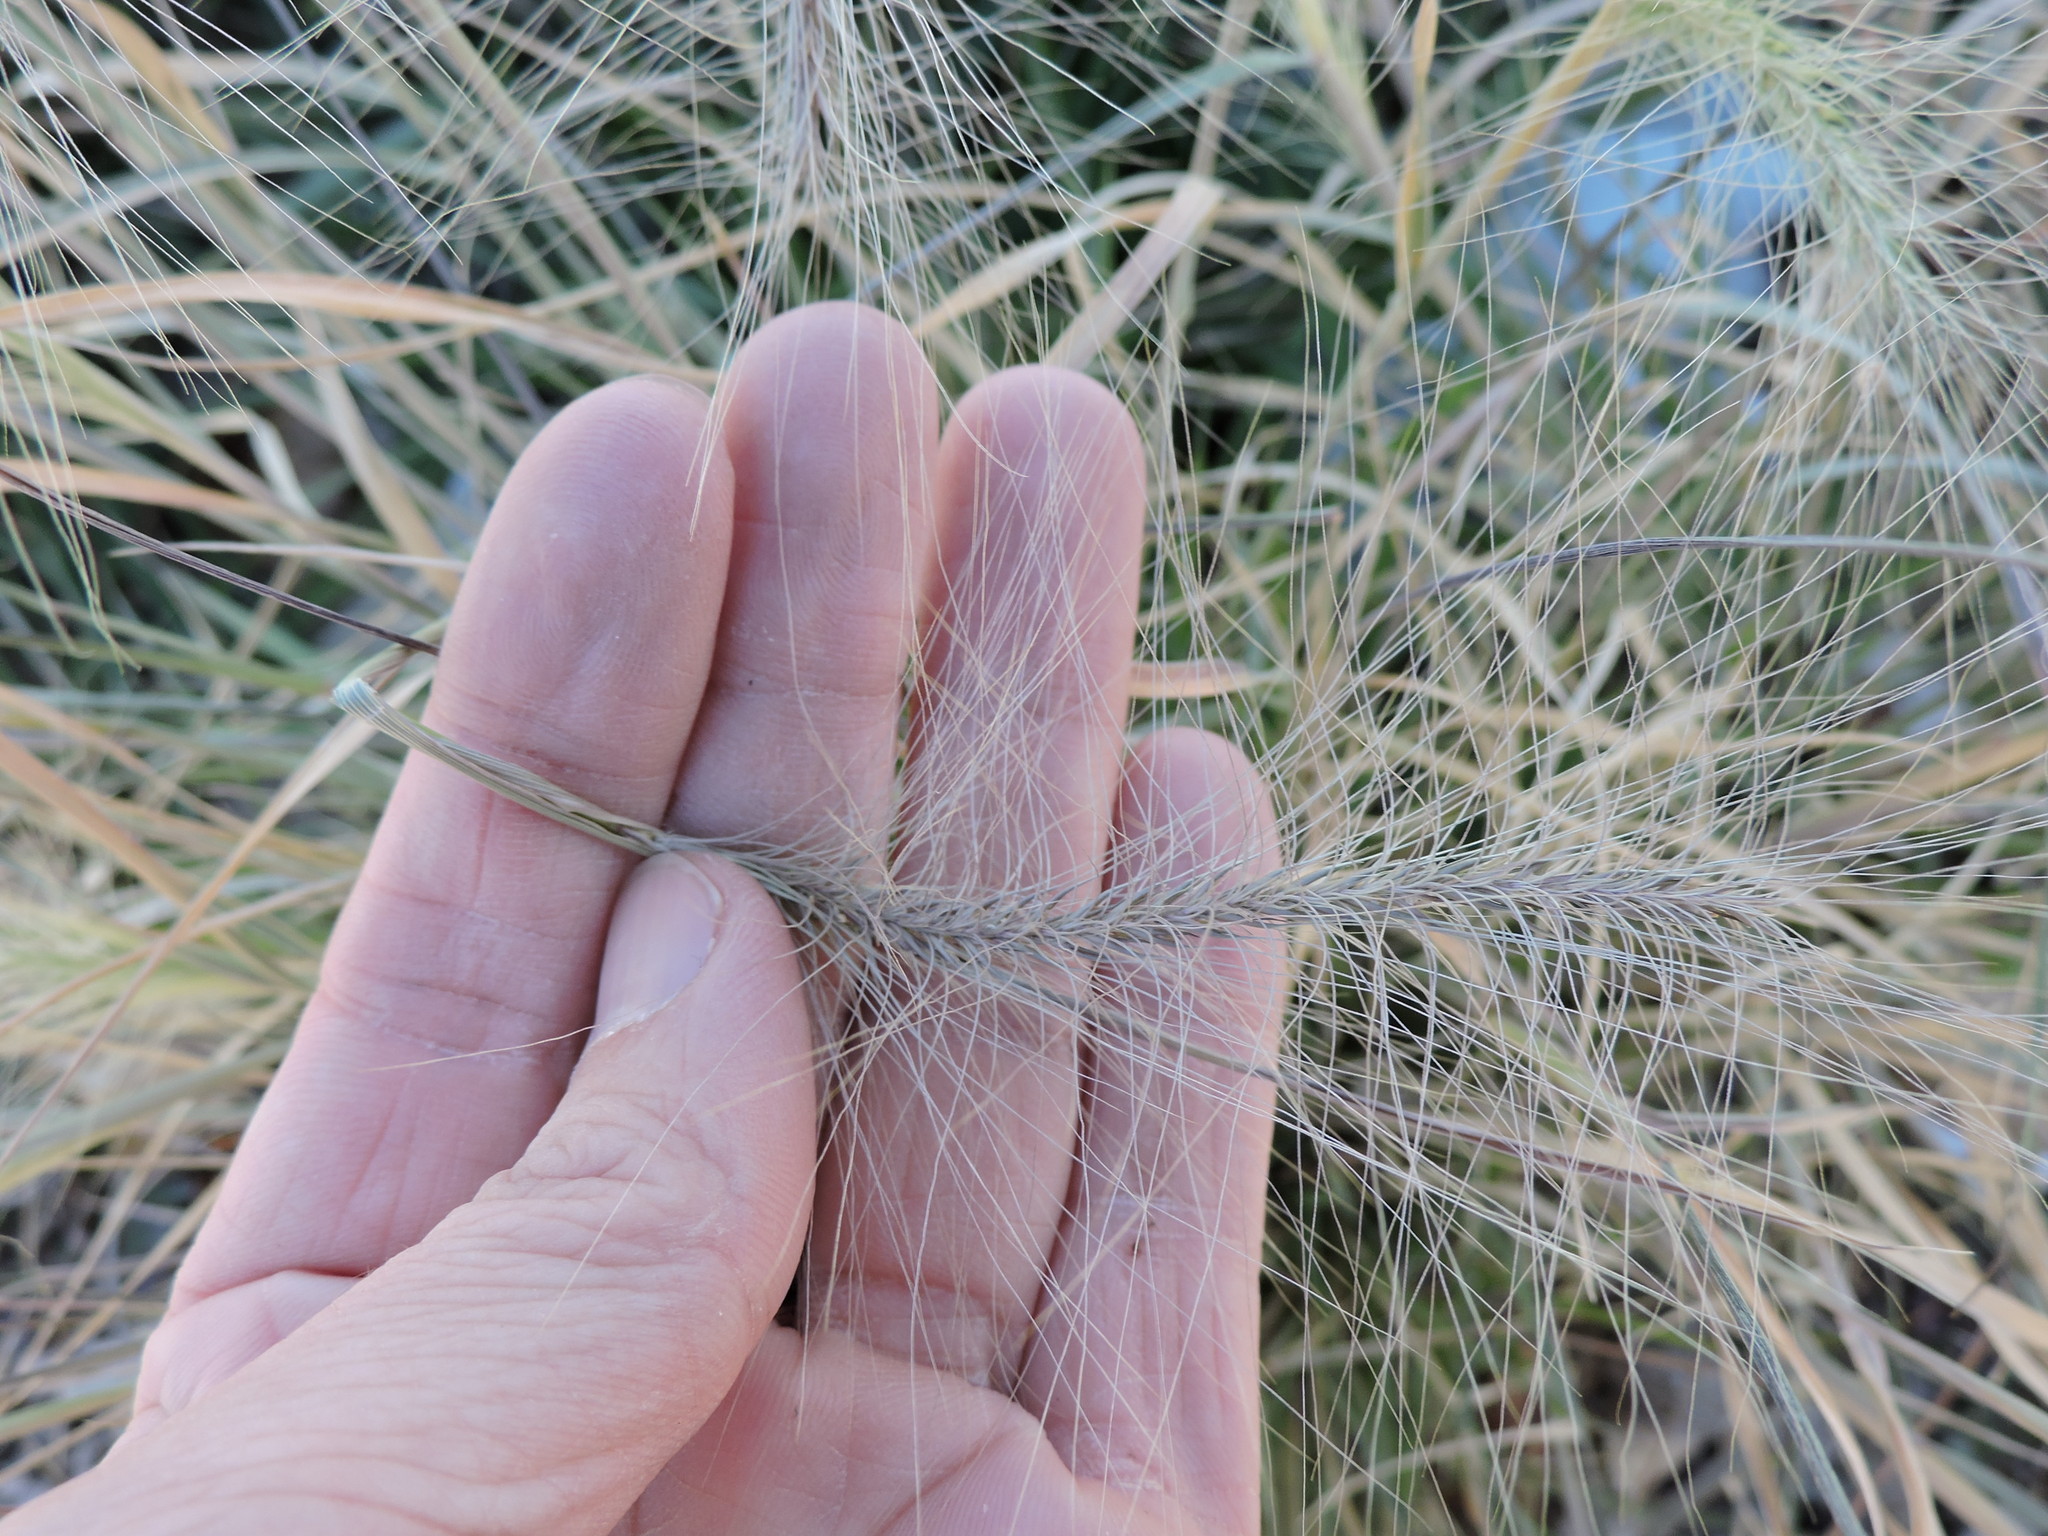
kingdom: Plantae
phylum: Tracheophyta
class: Liliopsida
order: Poales
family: Poaceae
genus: Hordeum
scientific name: Hordeum jubatum
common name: Foxtail barley
